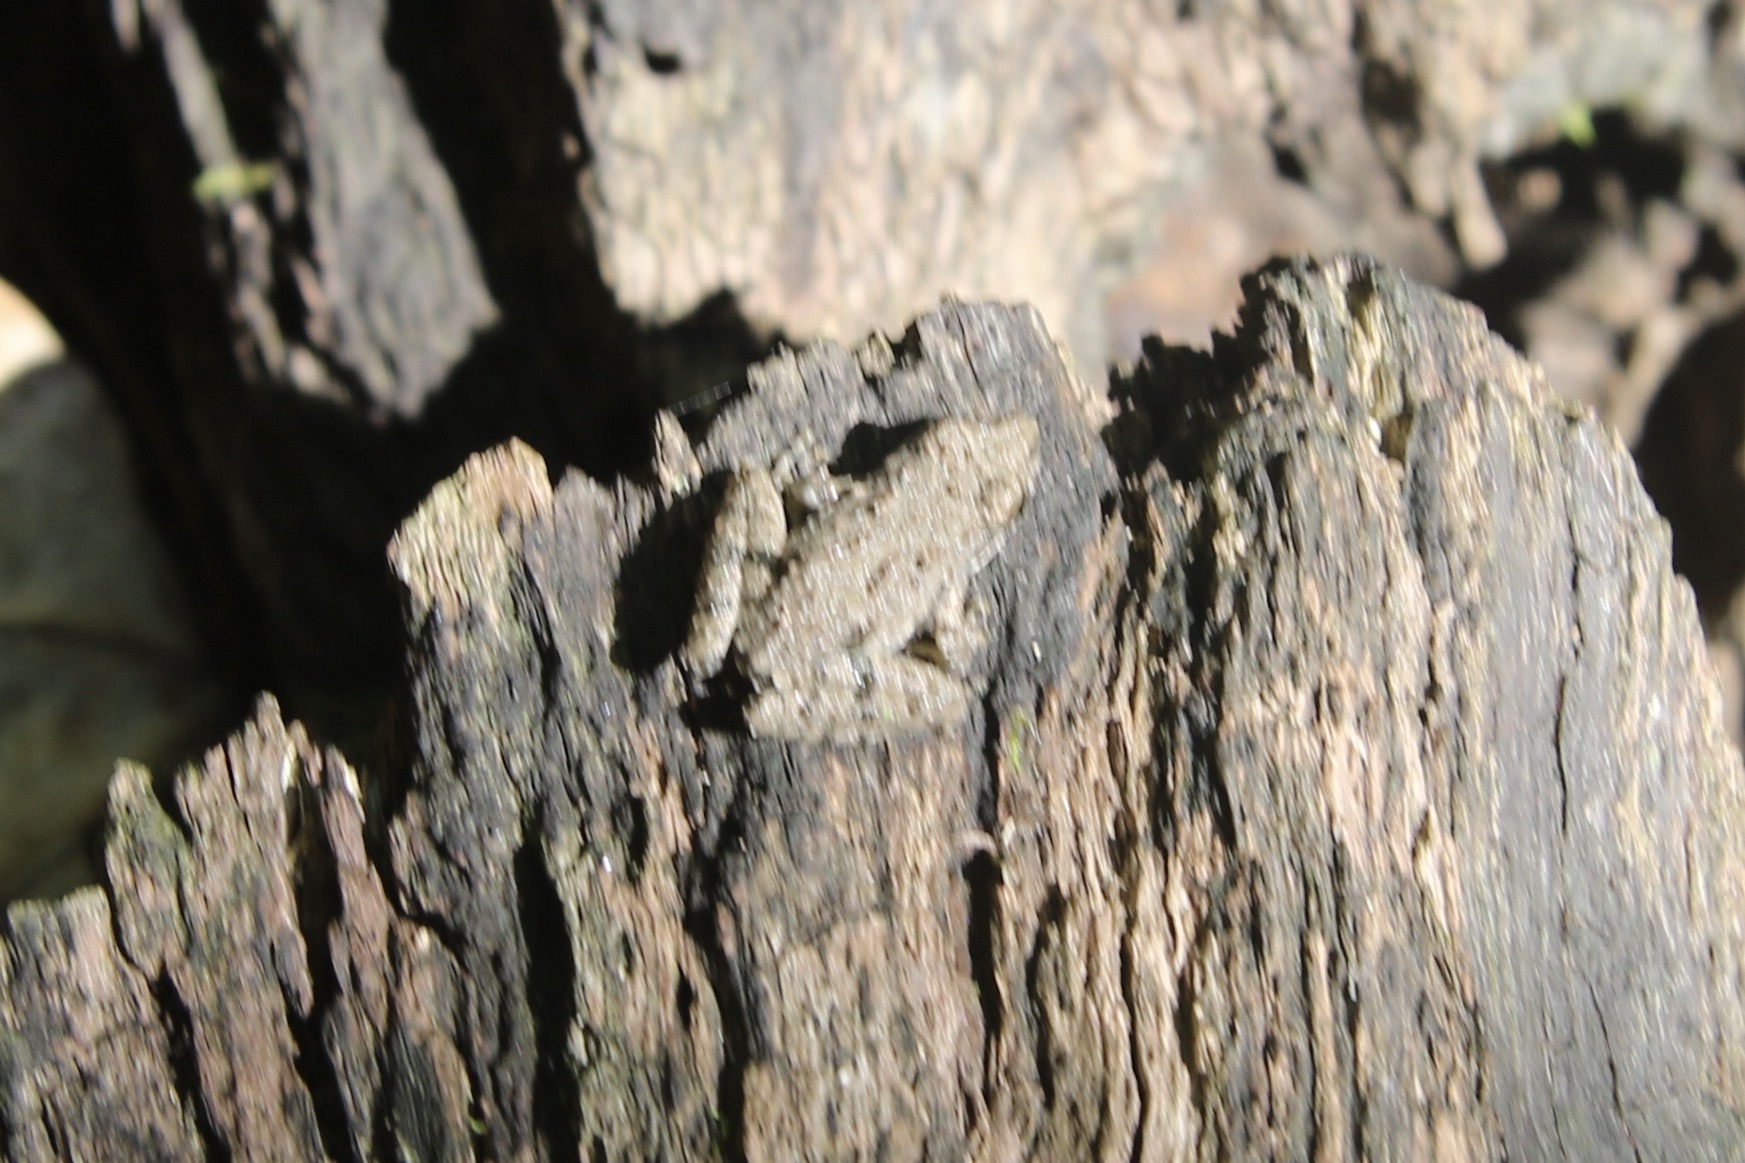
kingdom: Animalia
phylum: Chordata
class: Amphibia
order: Anura
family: Hylidae
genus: Acris
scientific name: Acris blanchardi
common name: Blanchard's cricket frog
